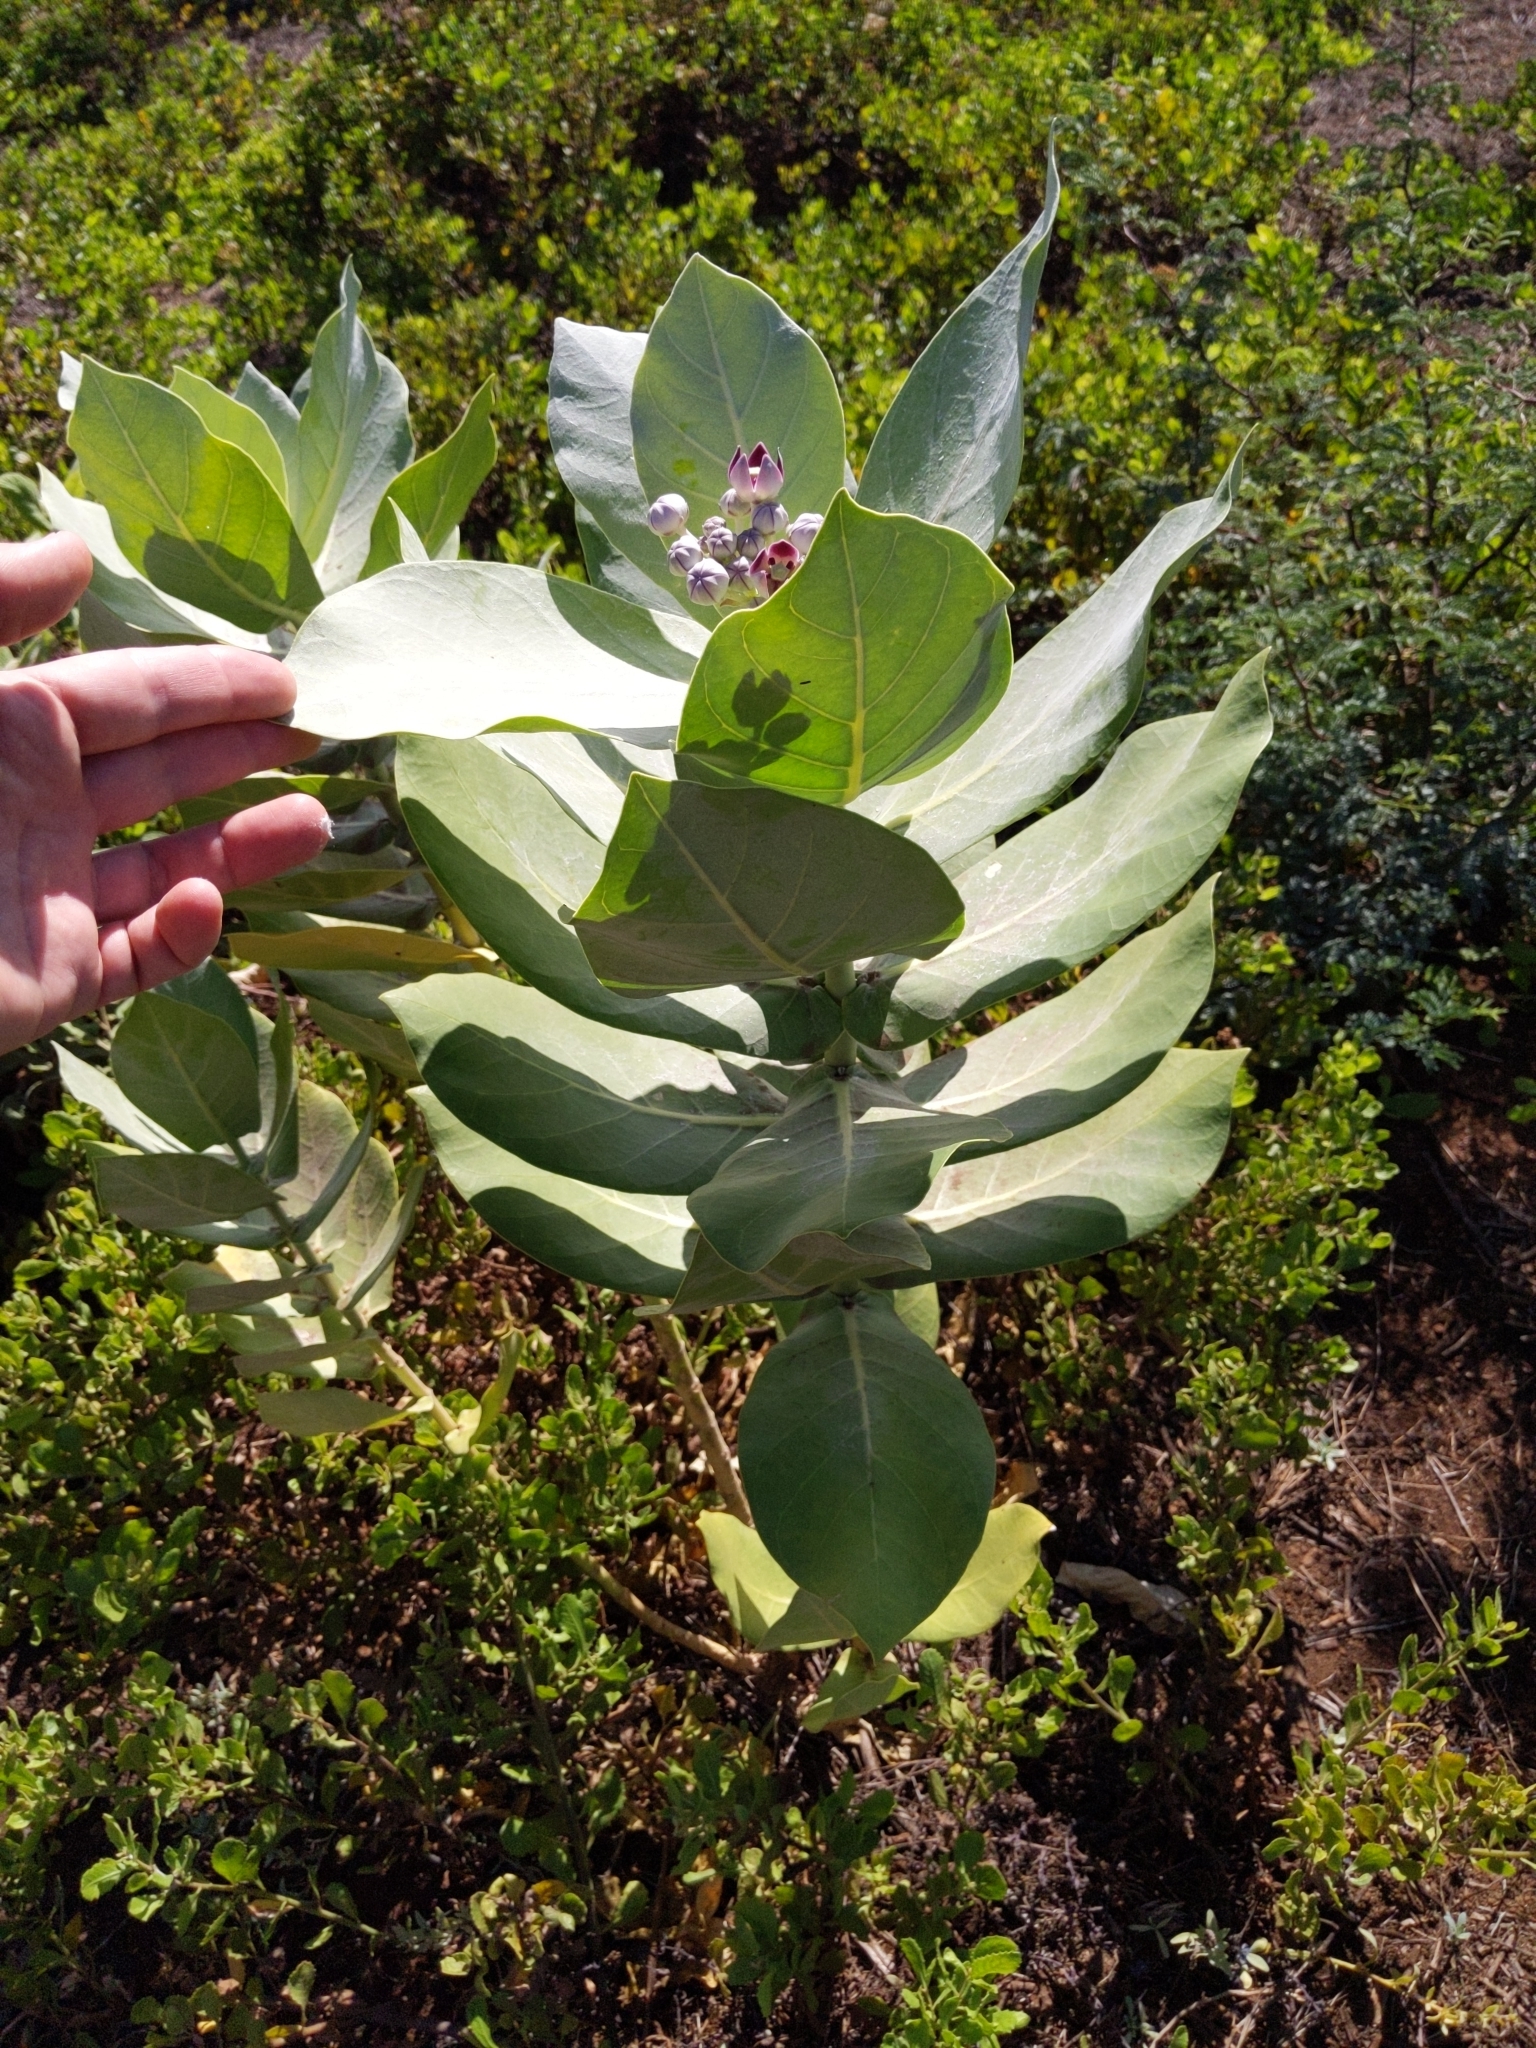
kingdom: Plantae
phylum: Tracheophyta
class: Magnoliopsida
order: Gentianales
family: Apocynaceae
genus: Calotropis
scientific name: Calotropis procera
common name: Roostertree
